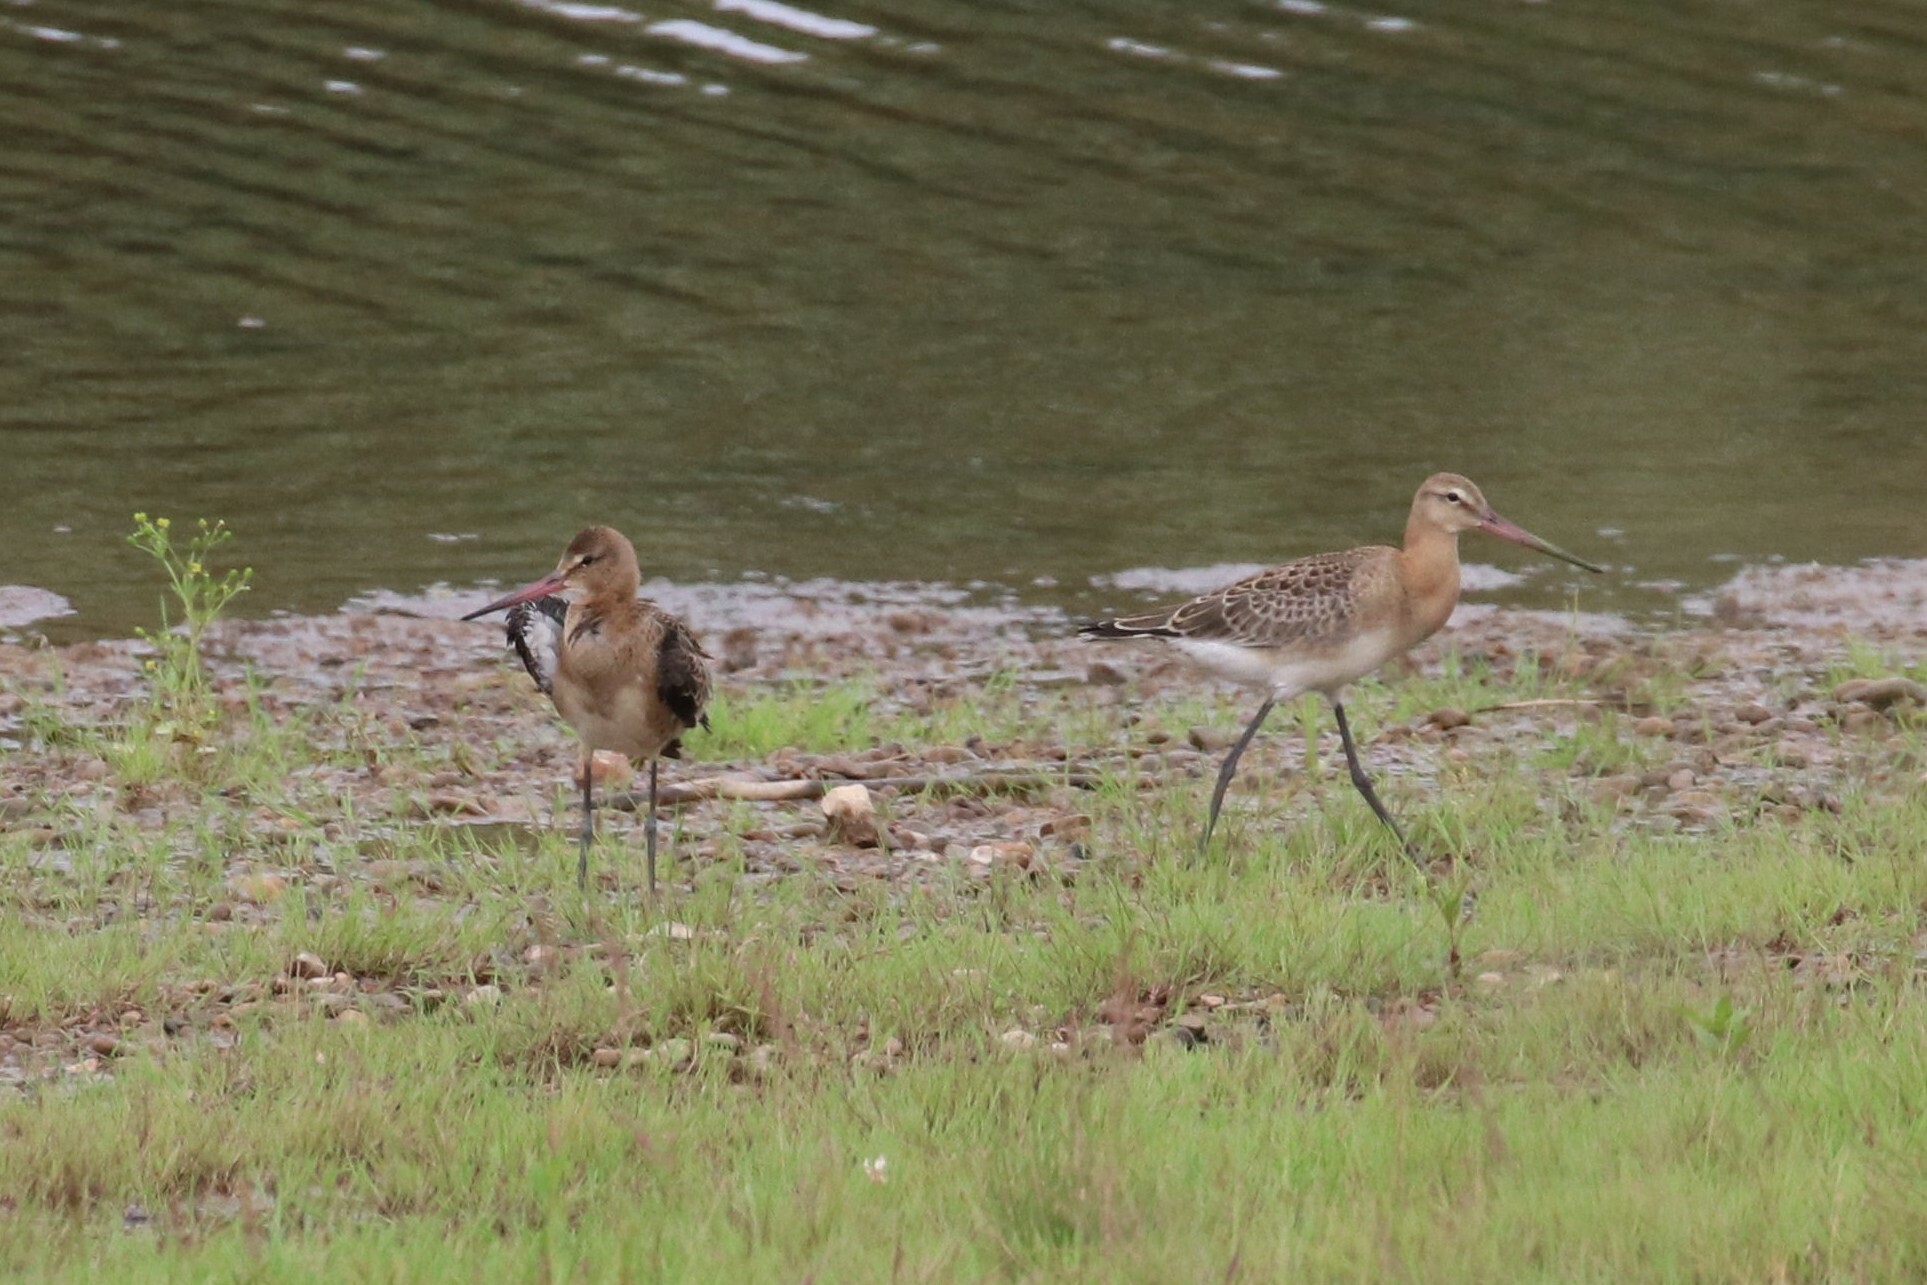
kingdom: Animalia
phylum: Chordata
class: Aves
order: Charadriiformes
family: Scolopacidae
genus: Limosa
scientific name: Limosa limosa
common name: Black-tailed godwit
